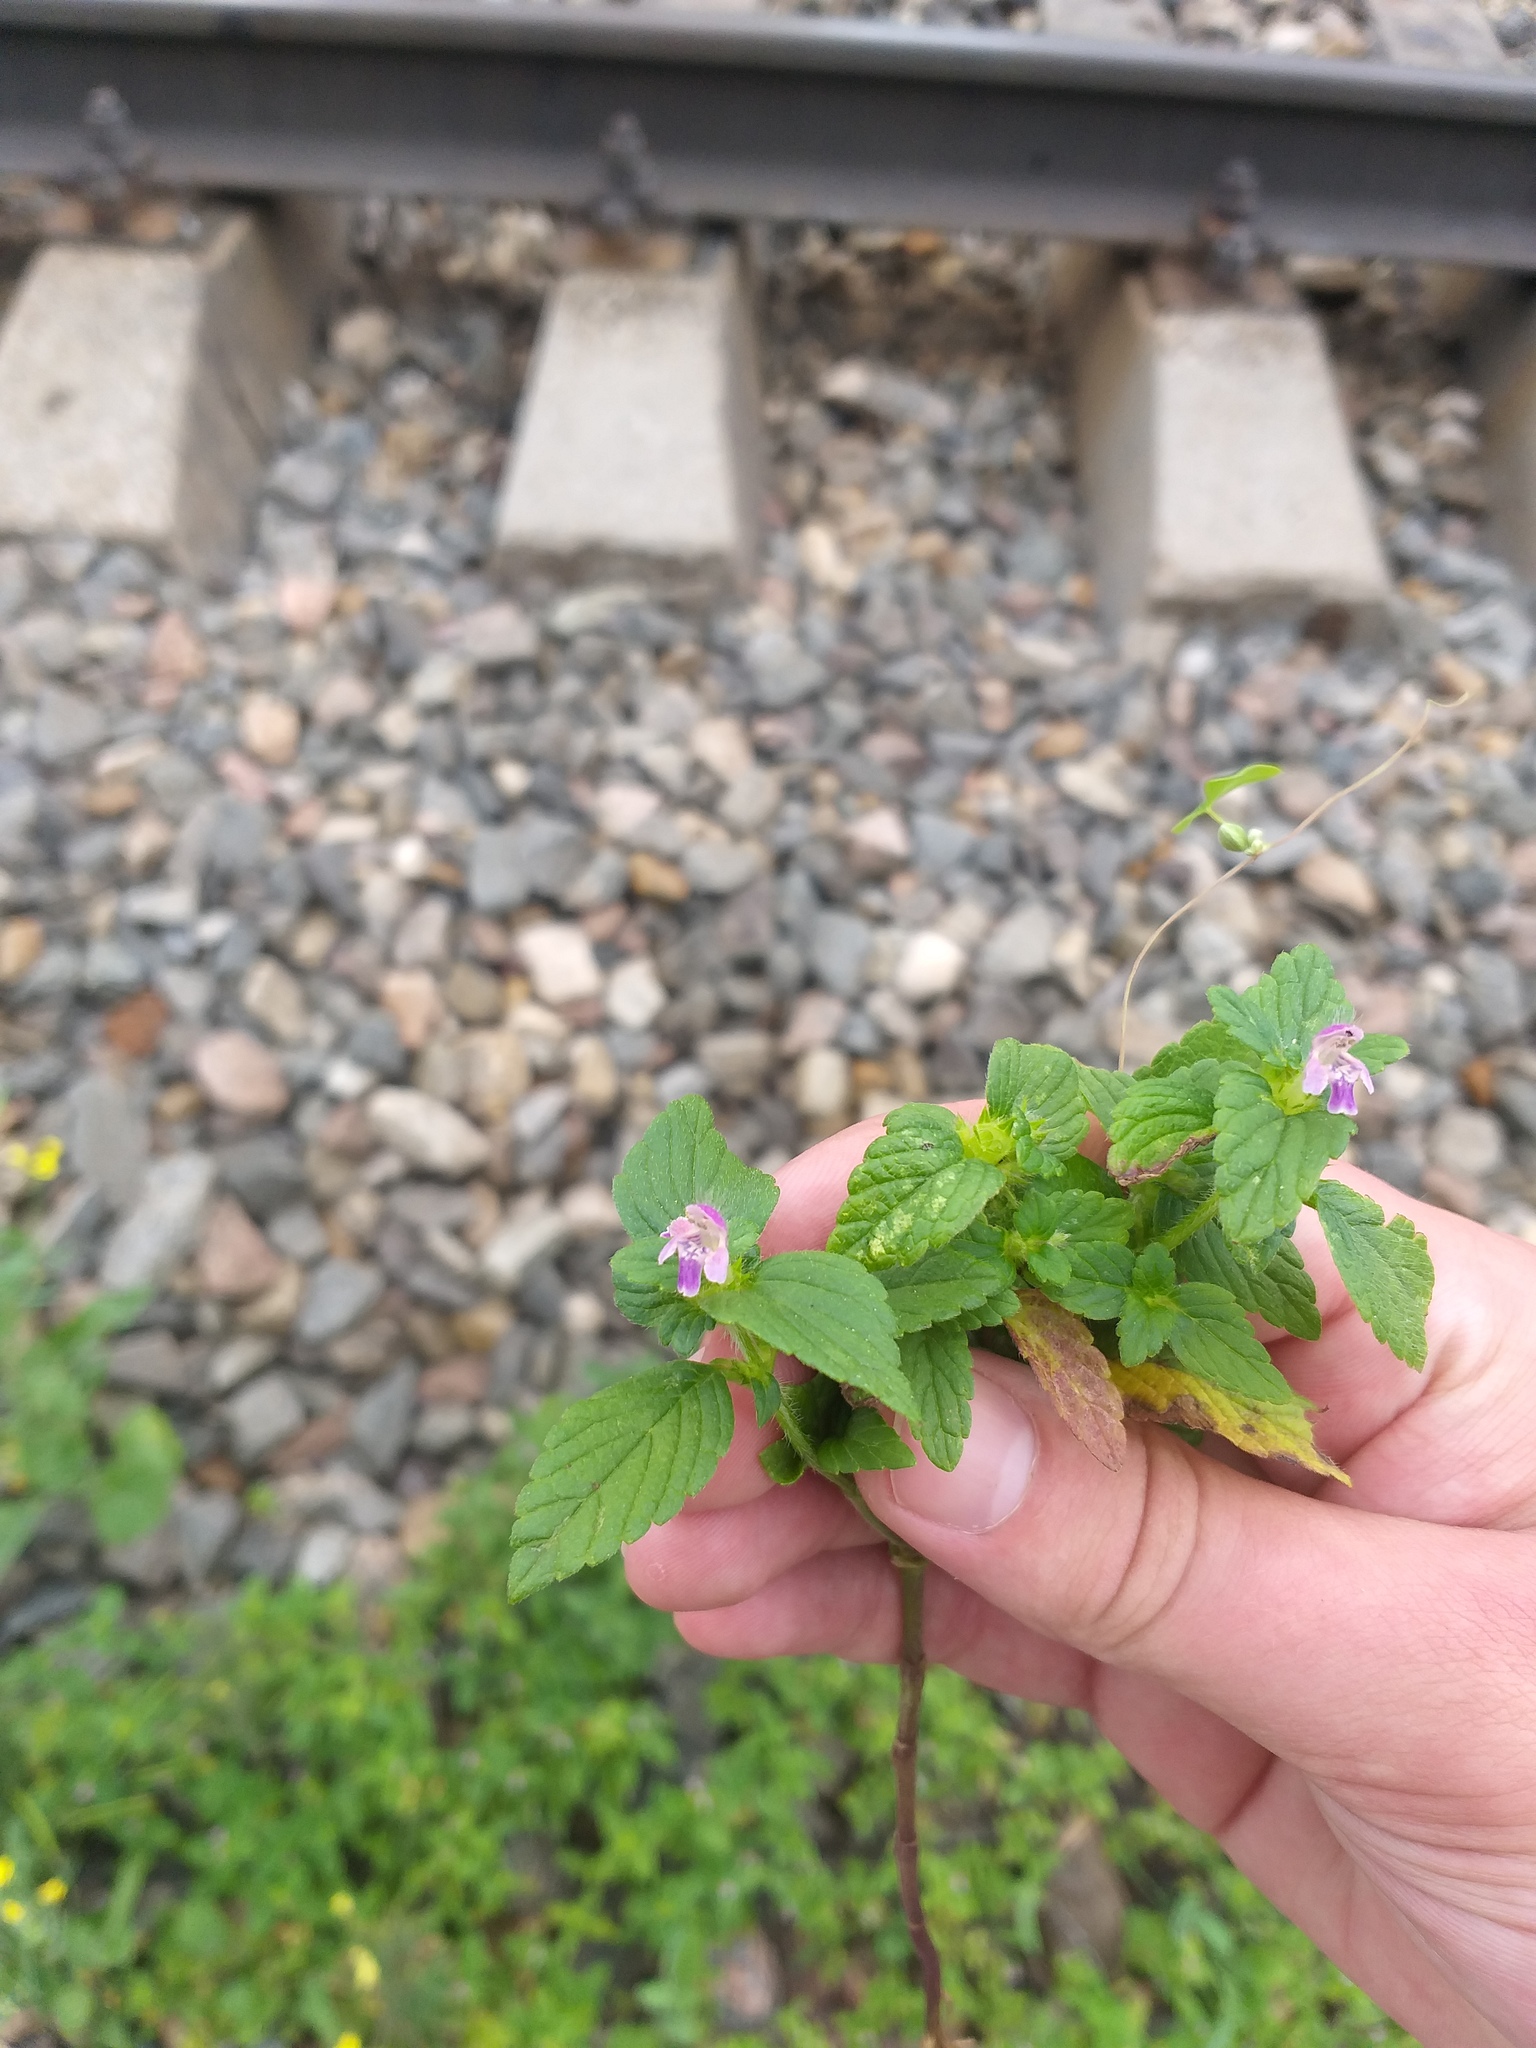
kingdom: Plantae
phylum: Tracheophyta
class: Magnoliopsida
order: Lamiales
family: Lamiaceae
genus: Galeopsis
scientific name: Galeopsis bifida
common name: Bifid hemp-nettle
